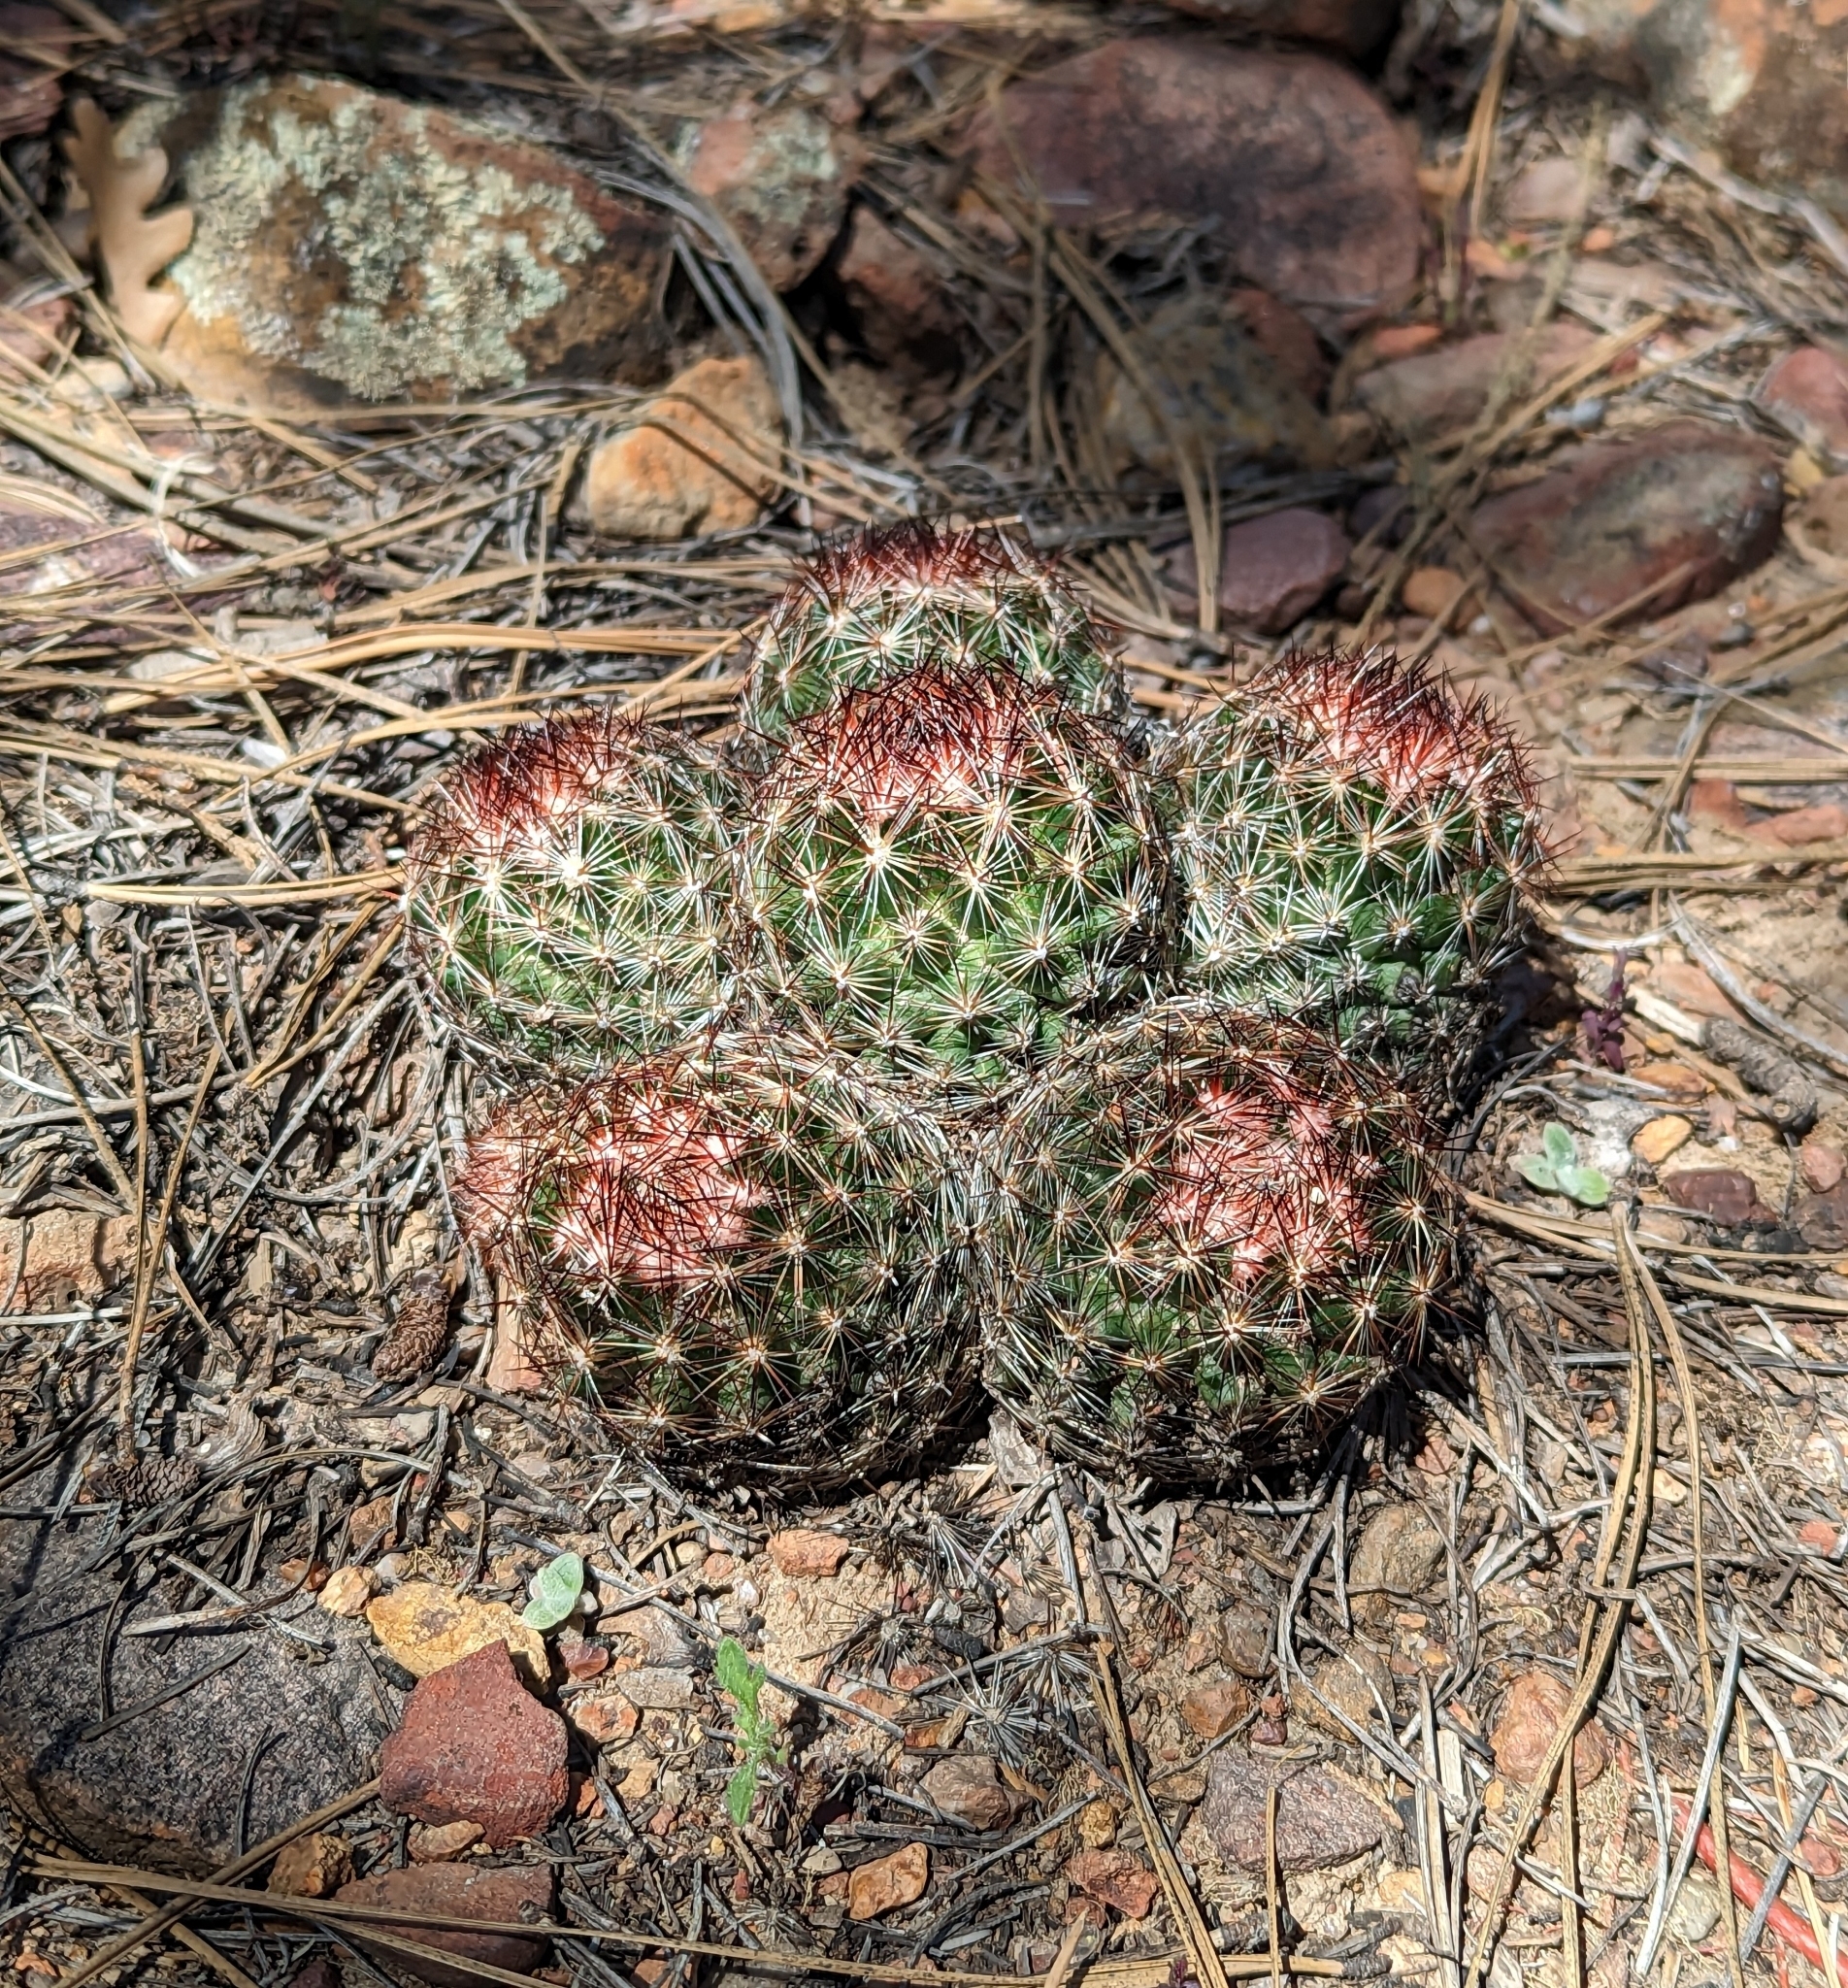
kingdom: Plantae
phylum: Tracheophyta
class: Magnoliopsida
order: Caryophyllales
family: Cactaceae
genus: Pelecyphora
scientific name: Pelecyphora vivipara
